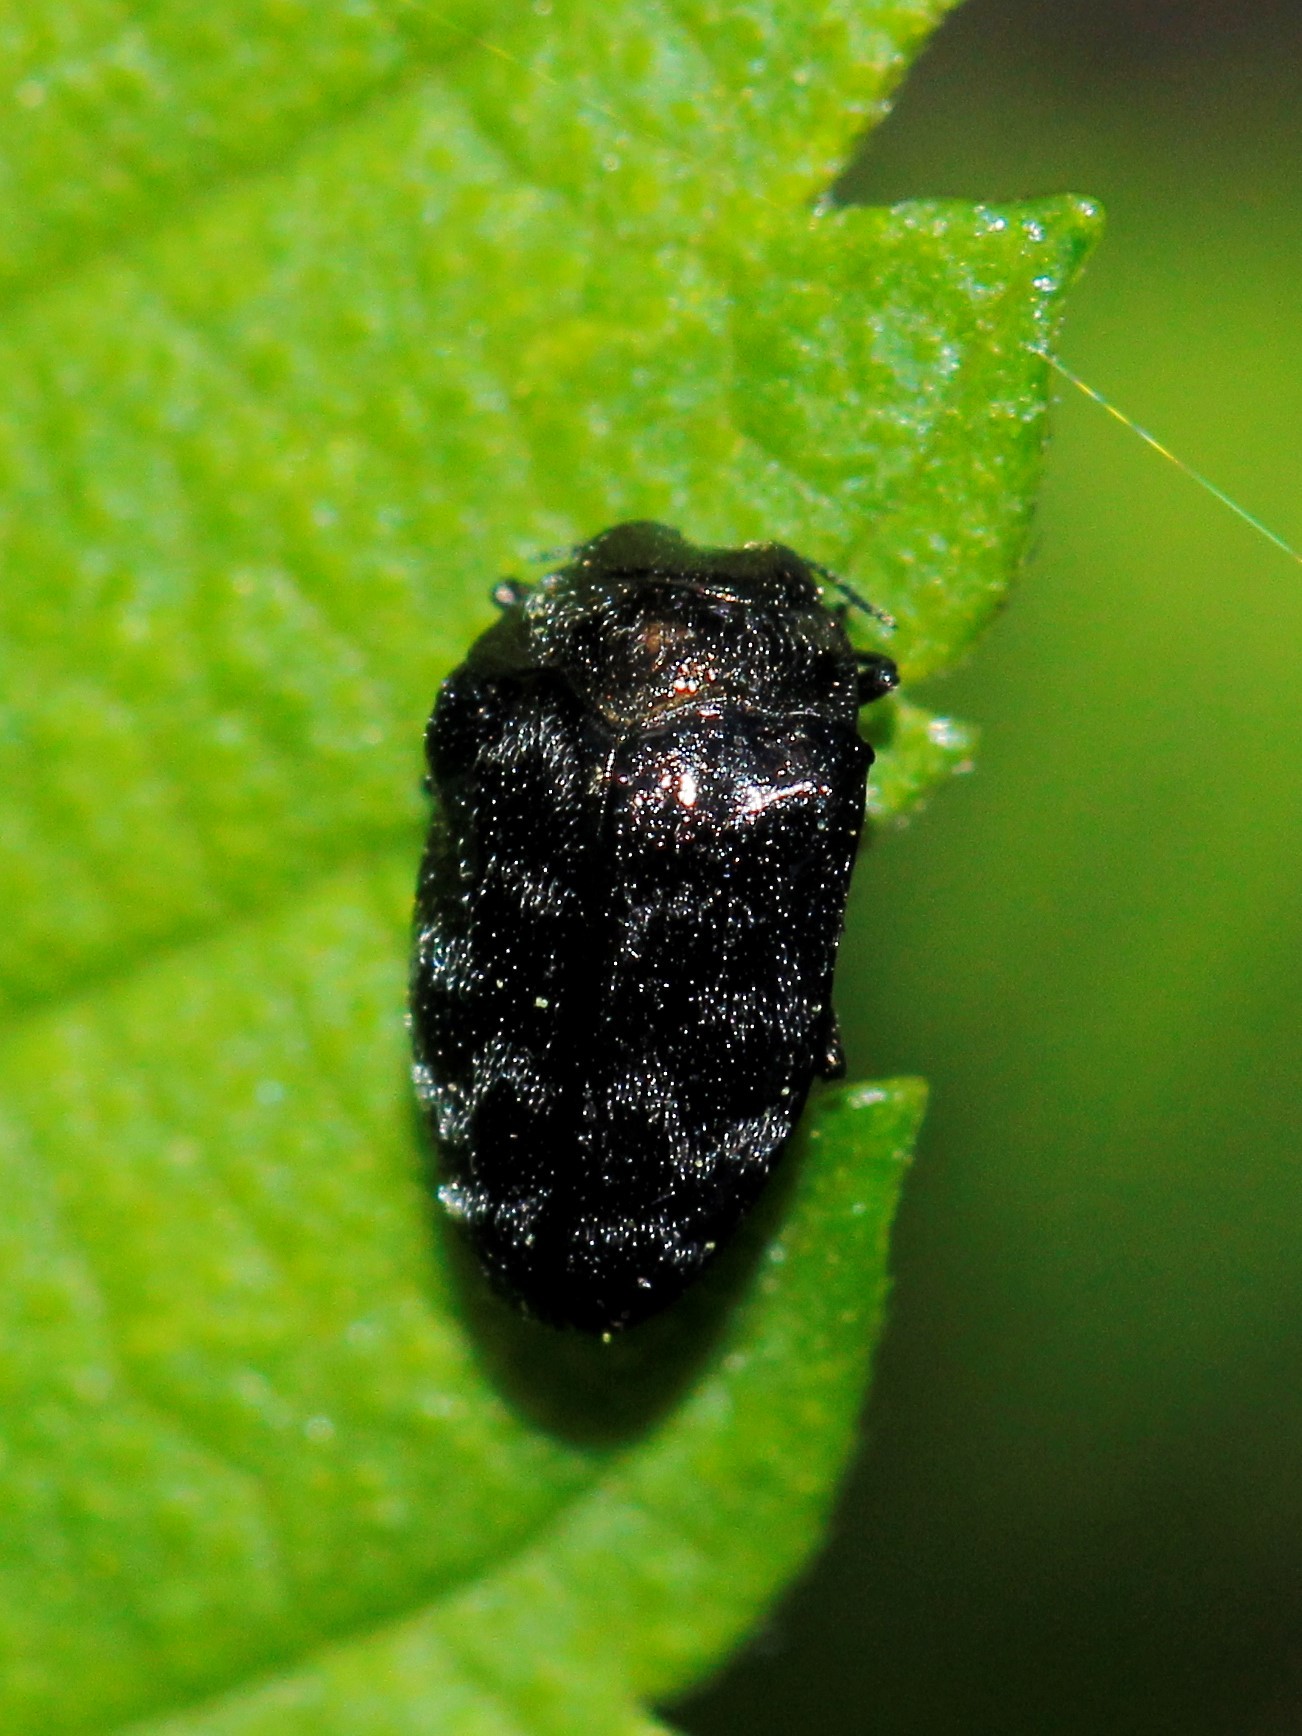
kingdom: Animalia
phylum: Arthropoda
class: Insecta
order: Coleoptera
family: Buprestidae
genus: Trachys
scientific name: Trachys minutus
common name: Metallic wood-boring beetle
